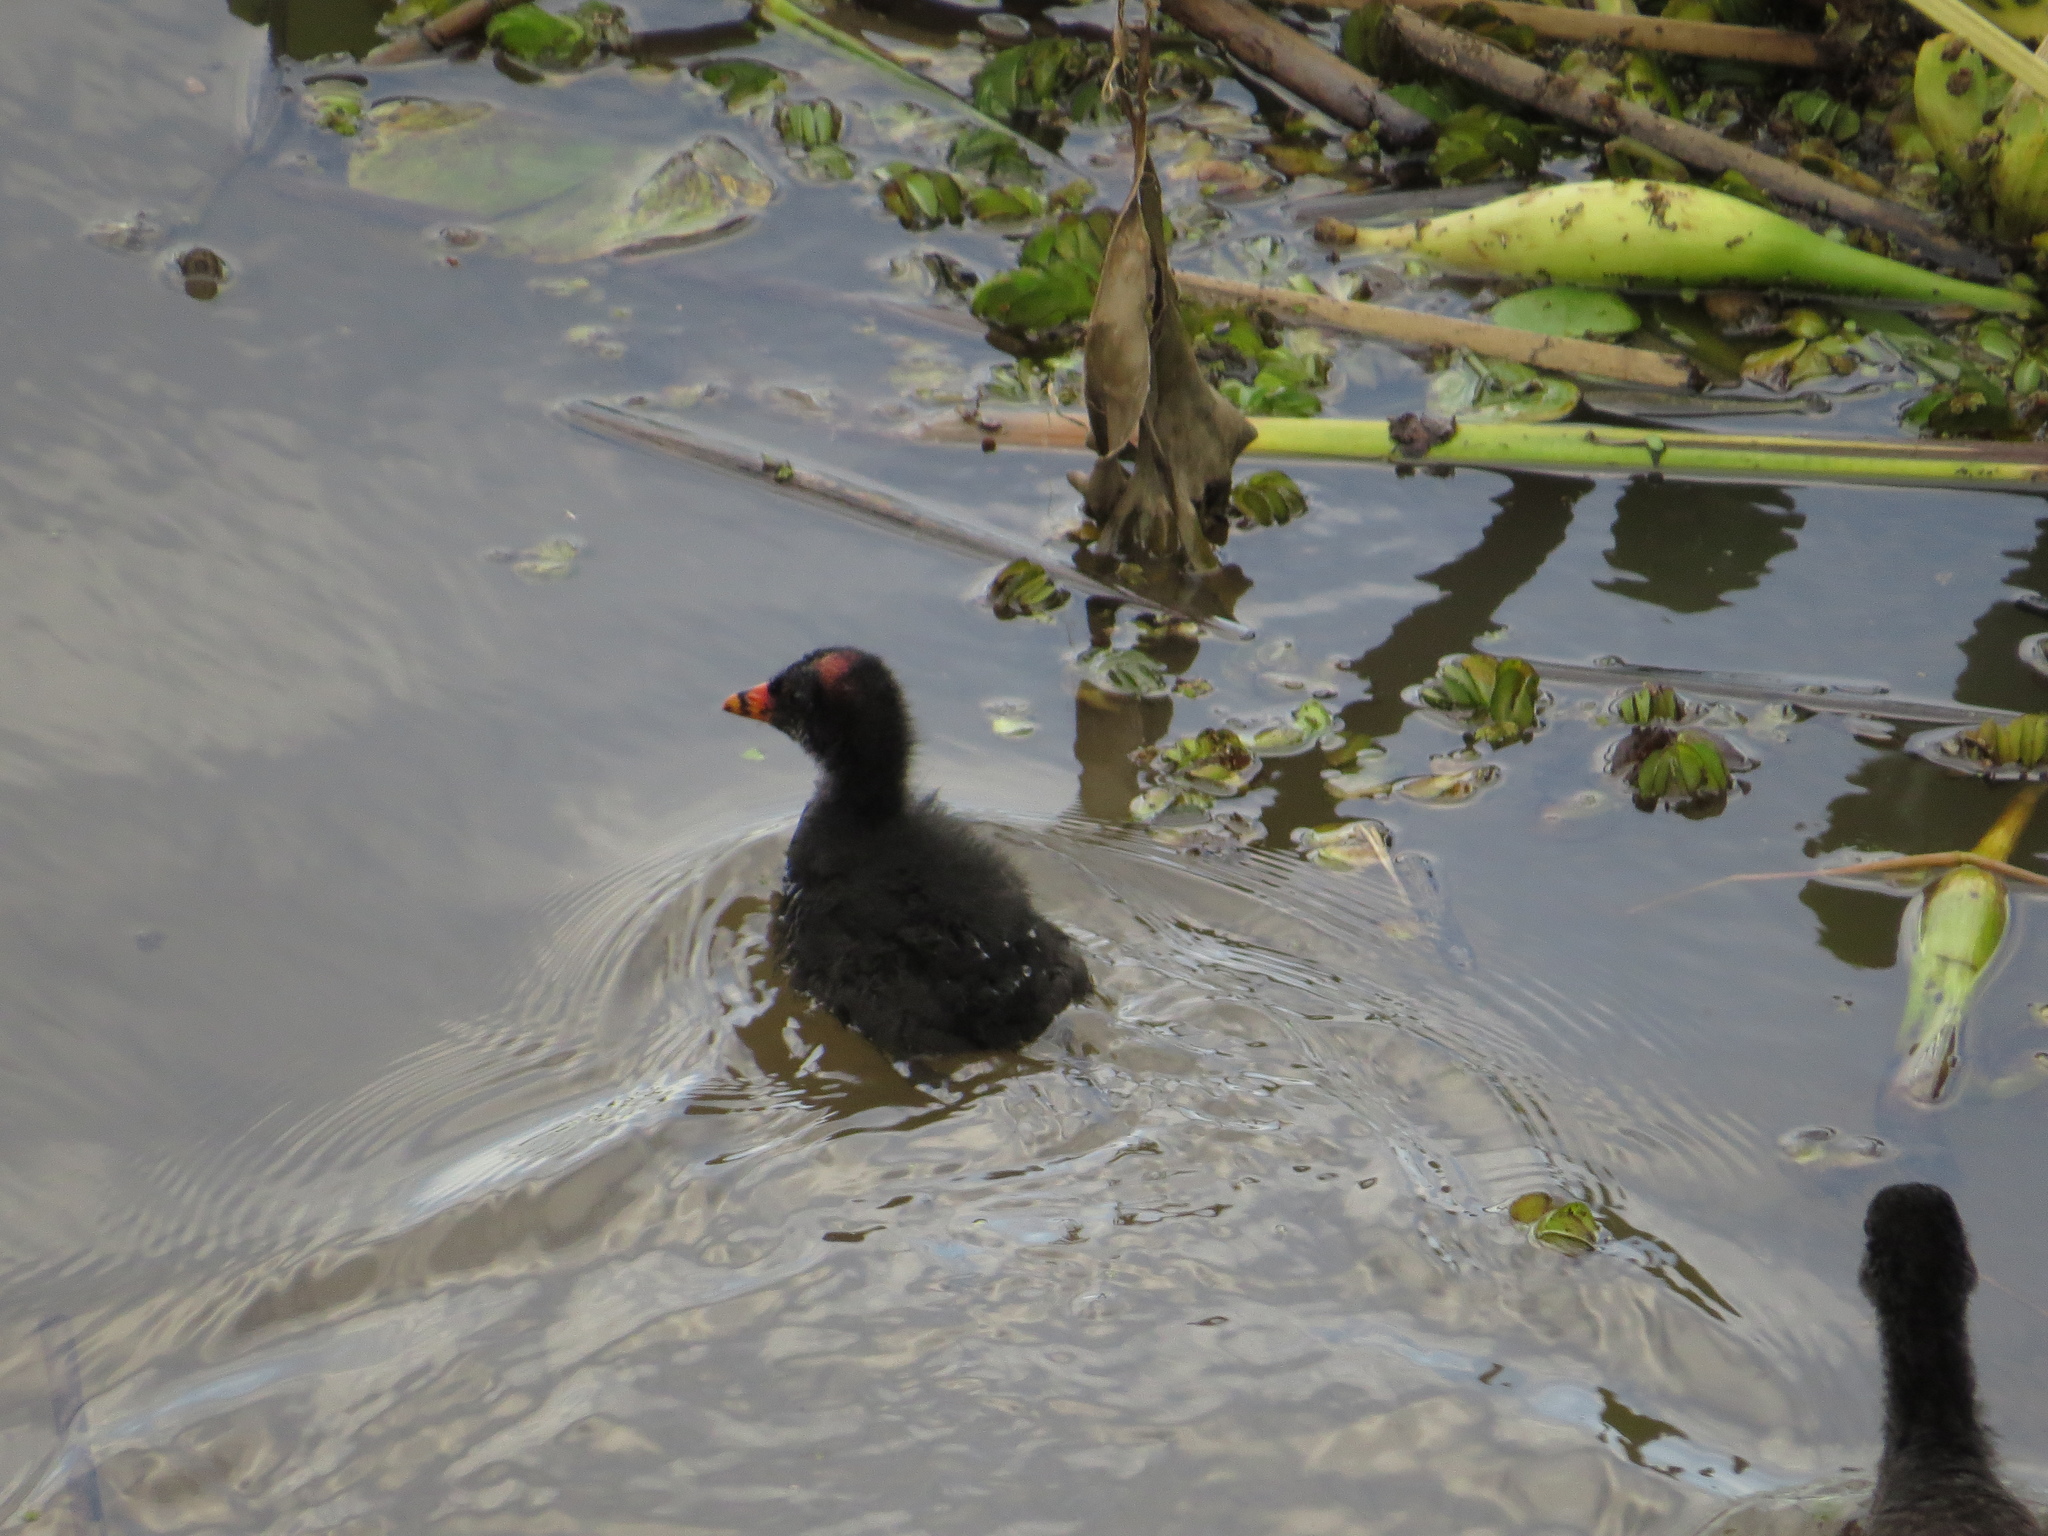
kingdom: Animalia
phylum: Chordata
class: Aves
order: Gruiformes
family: Rallidae
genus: Gallinula
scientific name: Gallinula chloropus
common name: Common moorhen
